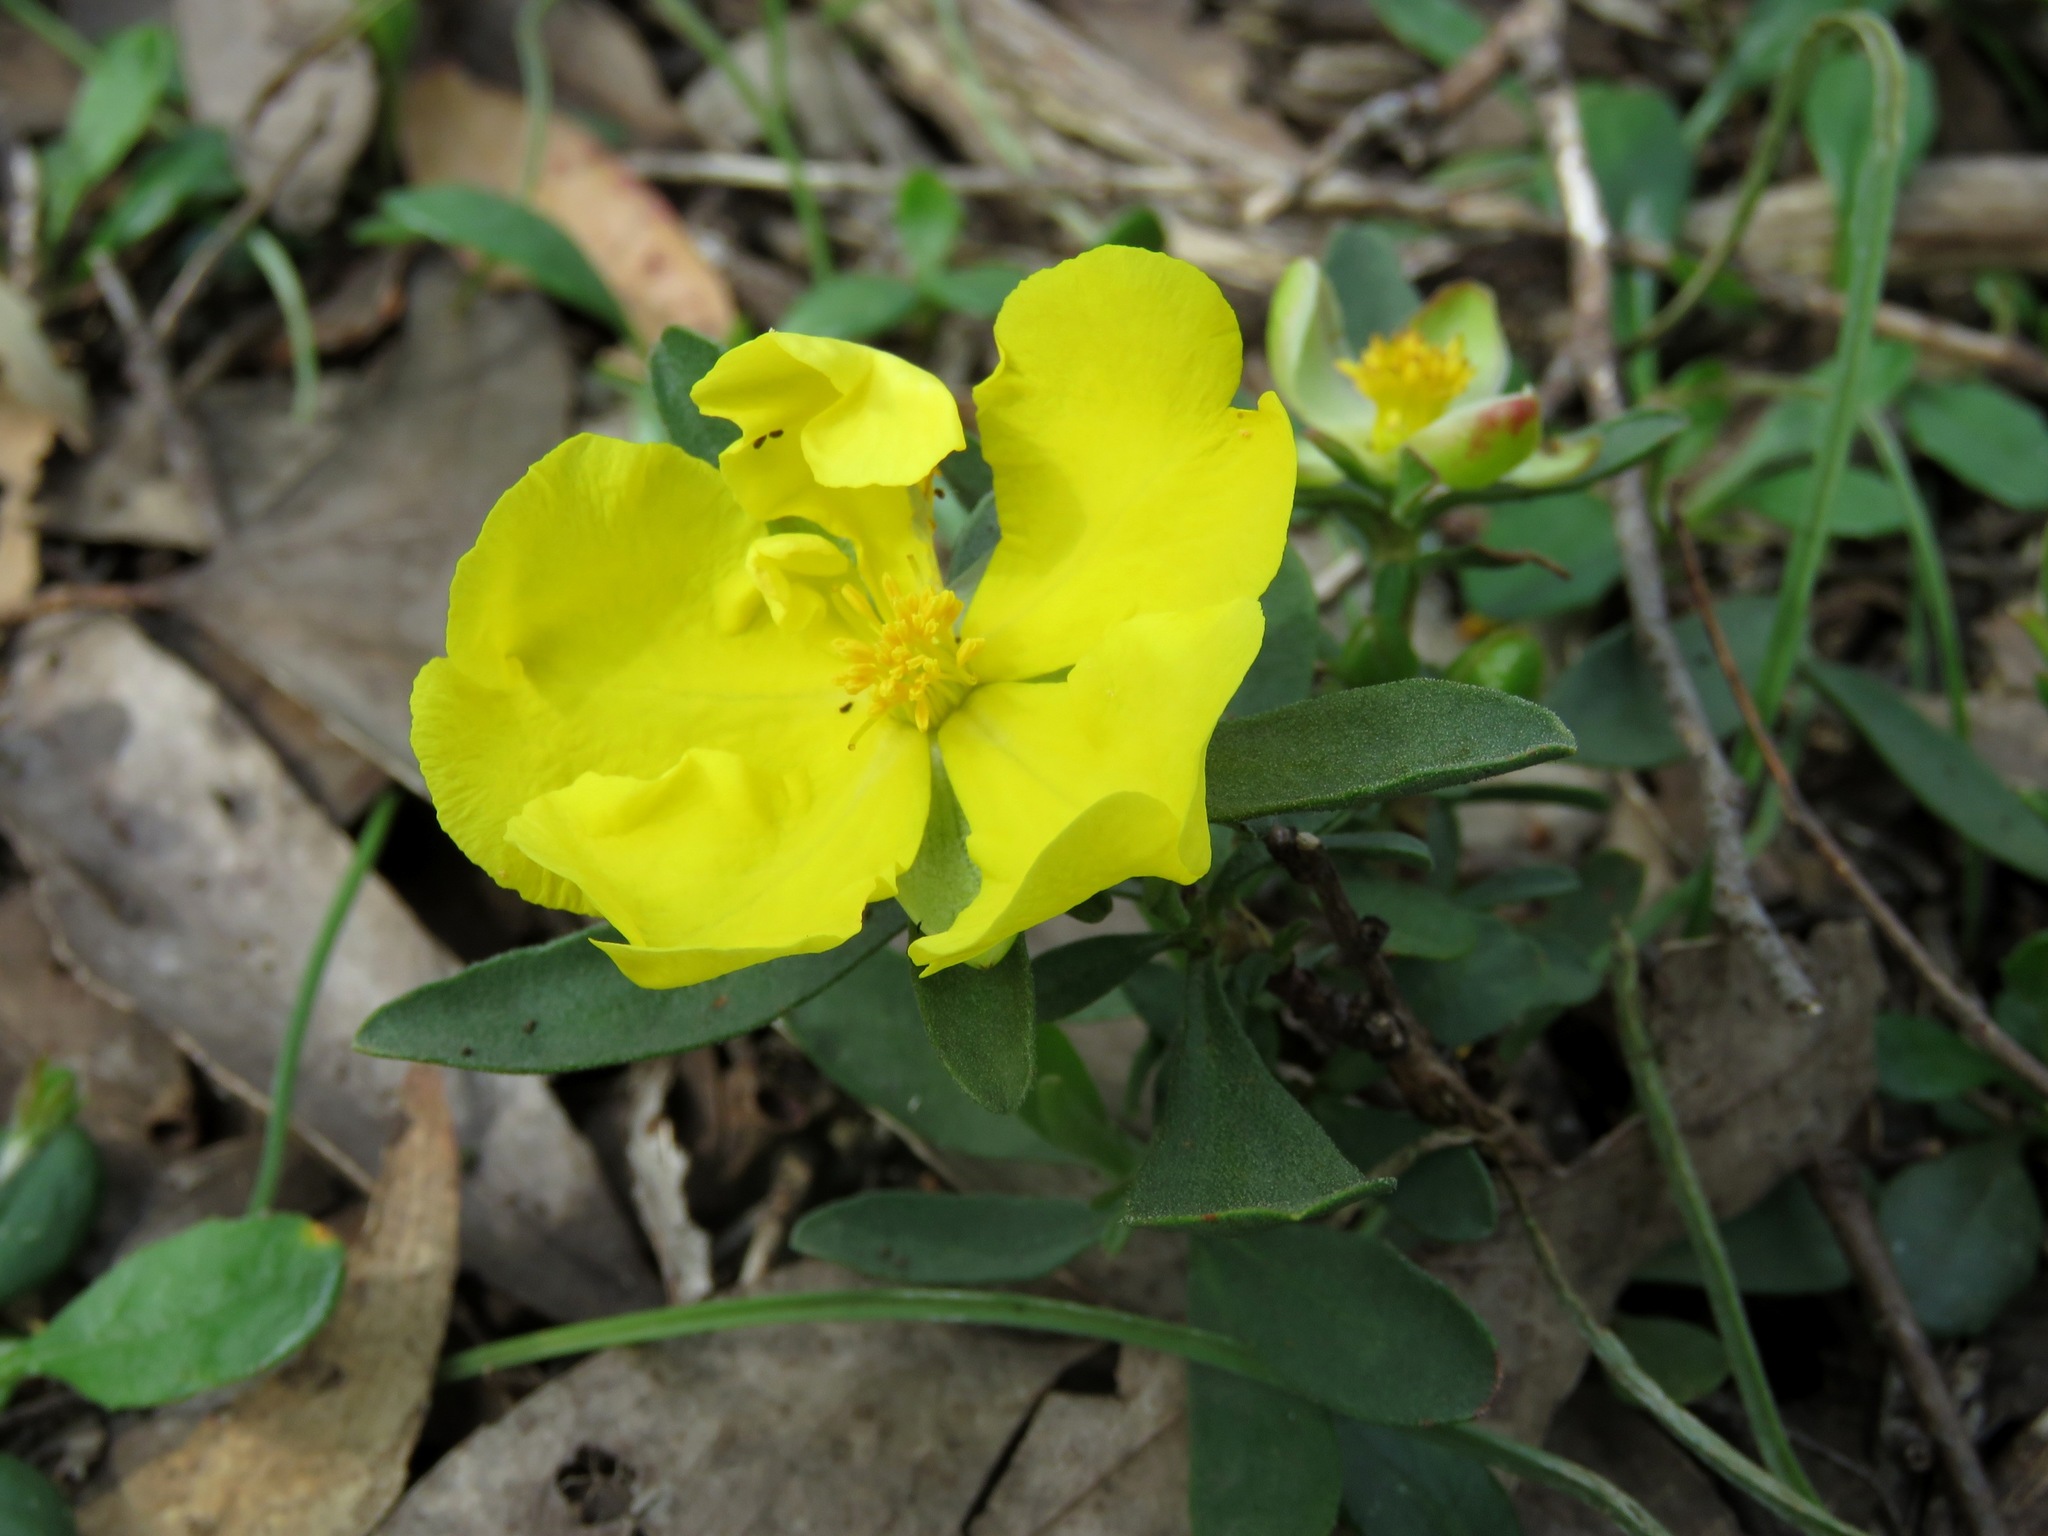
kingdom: Plantae
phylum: Tracheophyta
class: Magnoliopsida
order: Dilleniales
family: Dilleniaceae
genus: Hibbertia
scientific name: Hibbertia obtusifolia
